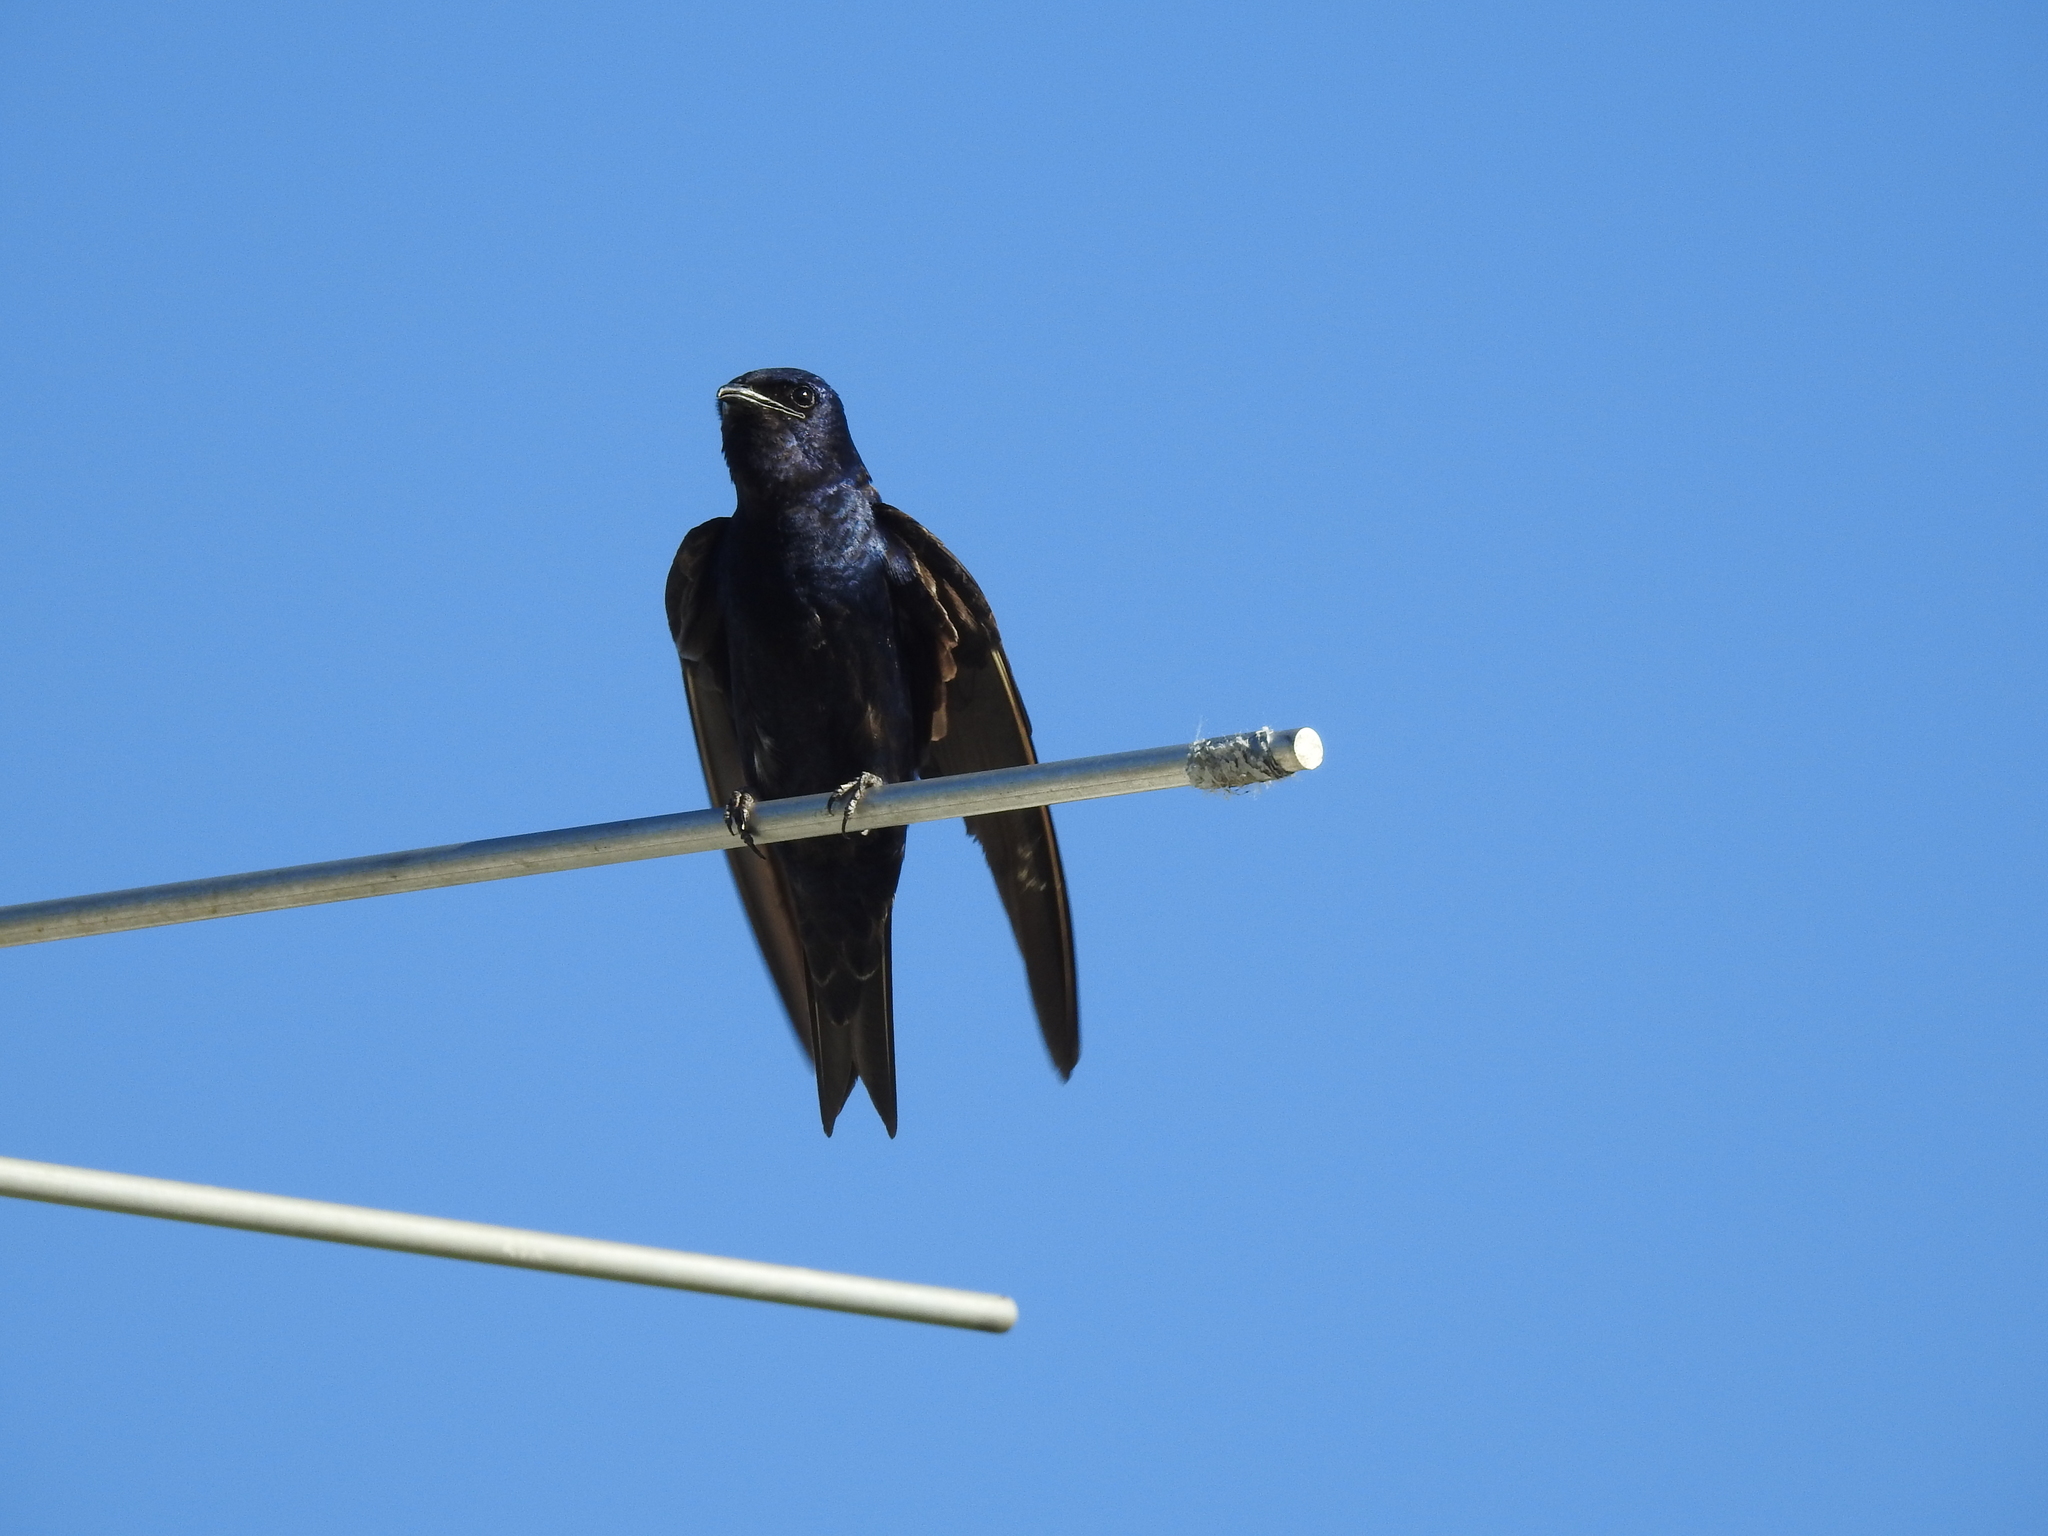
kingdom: Animalia
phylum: Chordata
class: Aves
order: Passeriformes
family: Hirundinidae
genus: Progne
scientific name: Progne subis
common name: Purple martin
